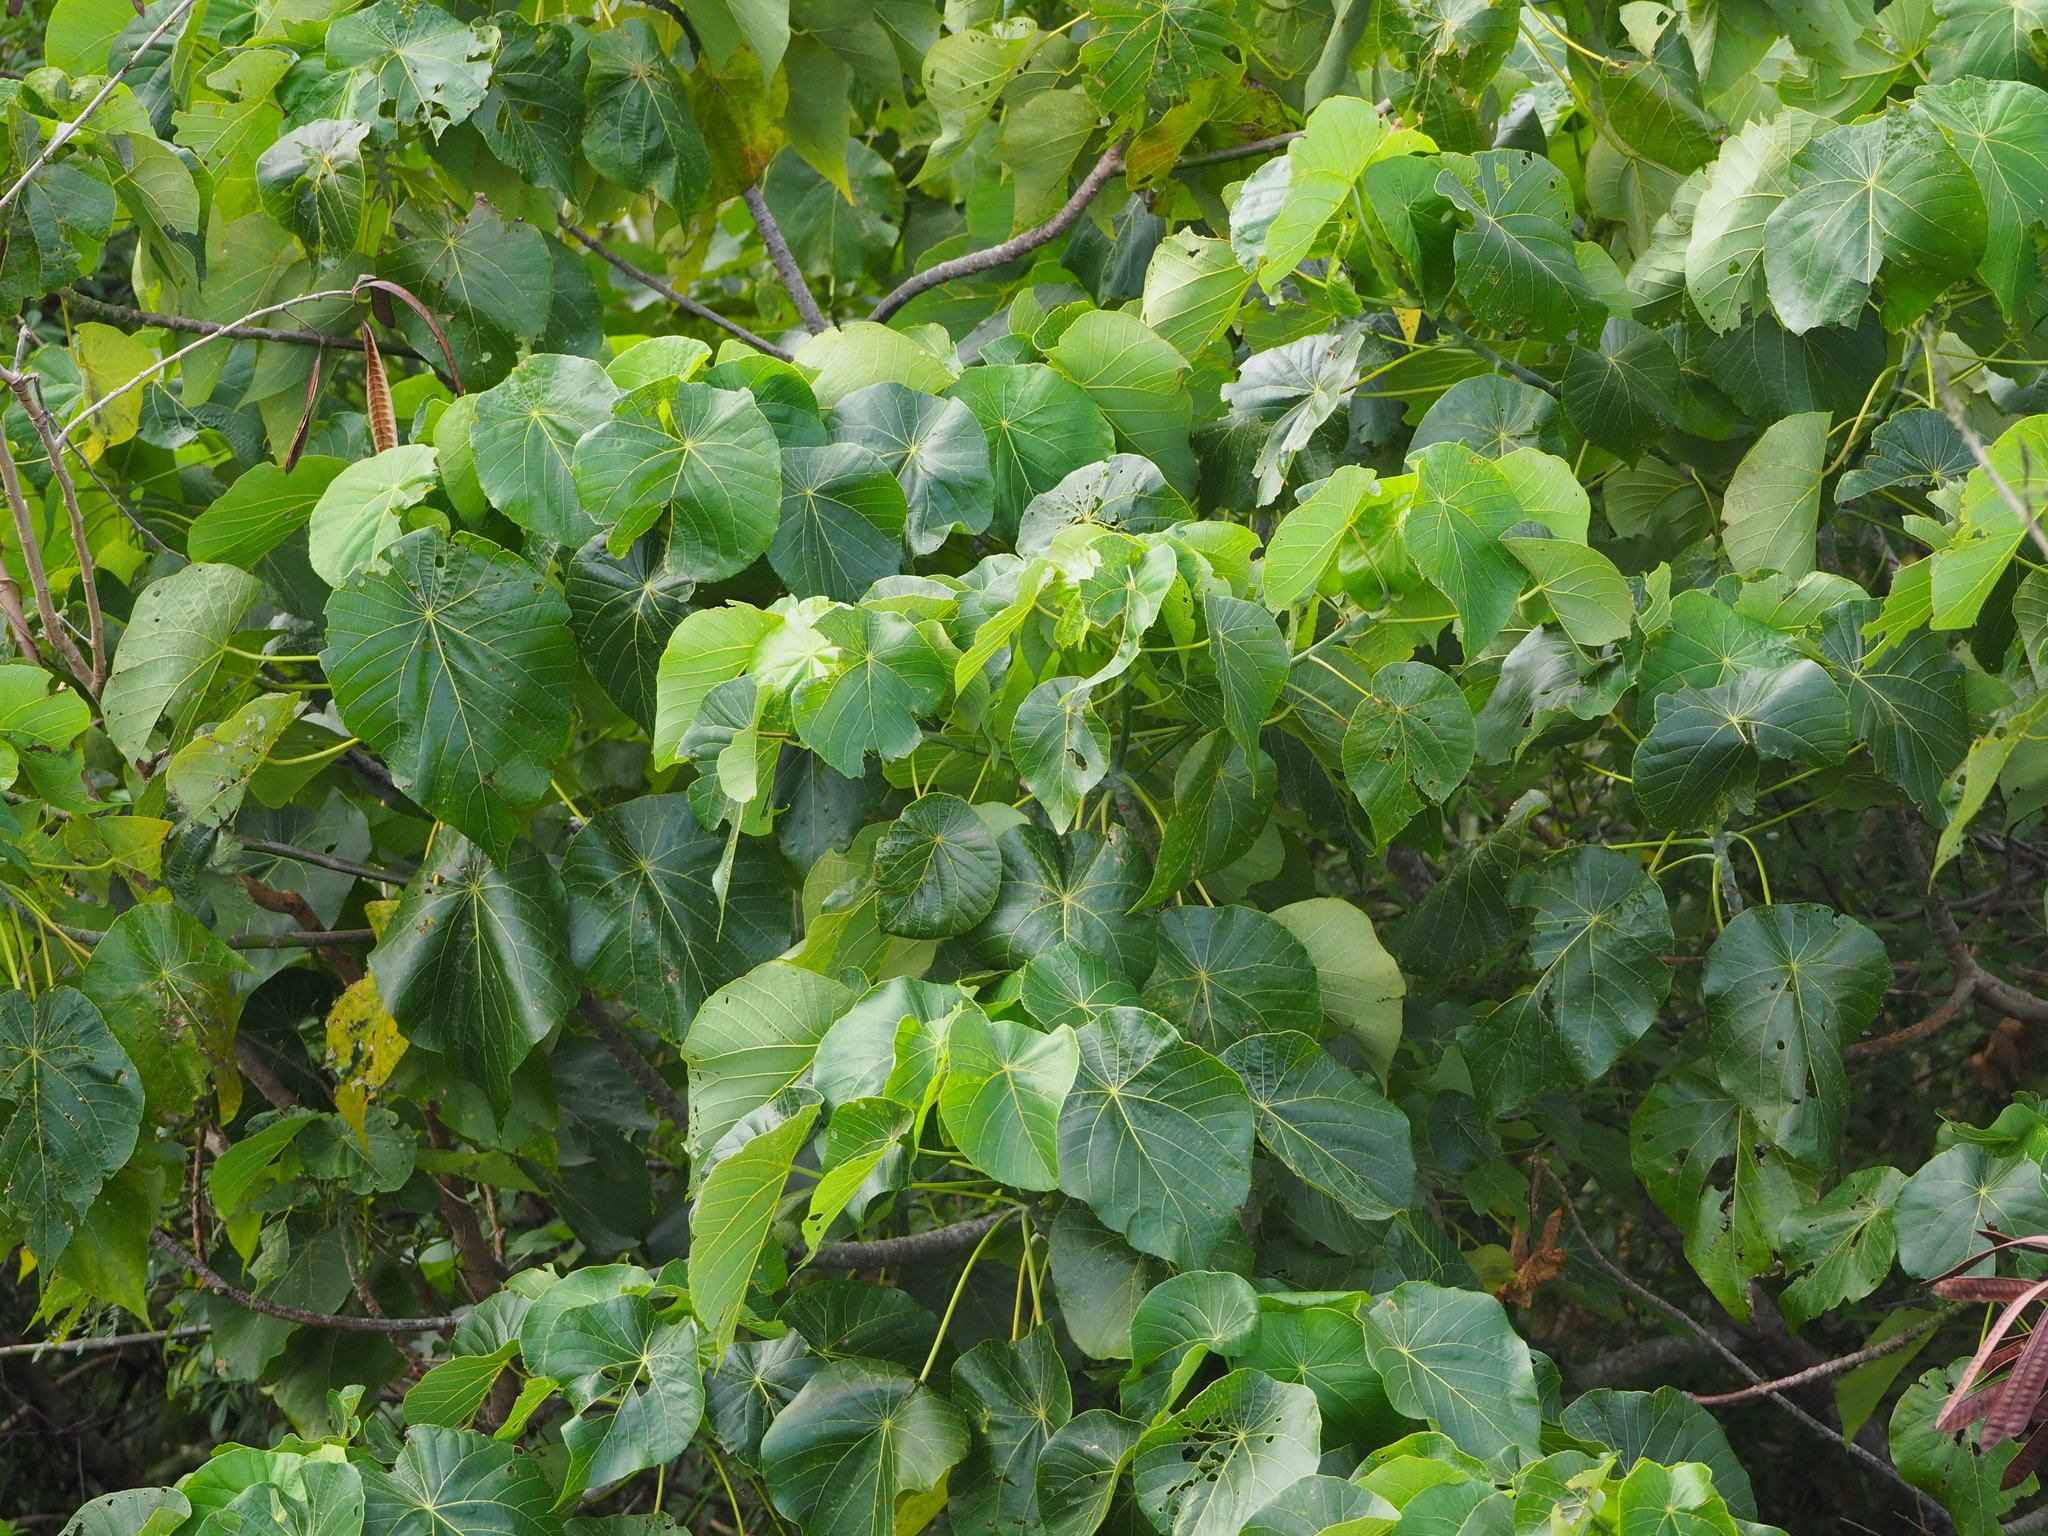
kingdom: Plantae
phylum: Tracheophyta
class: Magnoliopsida
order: Malpighiales
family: Euphorbiaceae
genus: Macaranga
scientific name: Macaranga tanarius
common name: Parasol leaf tree
